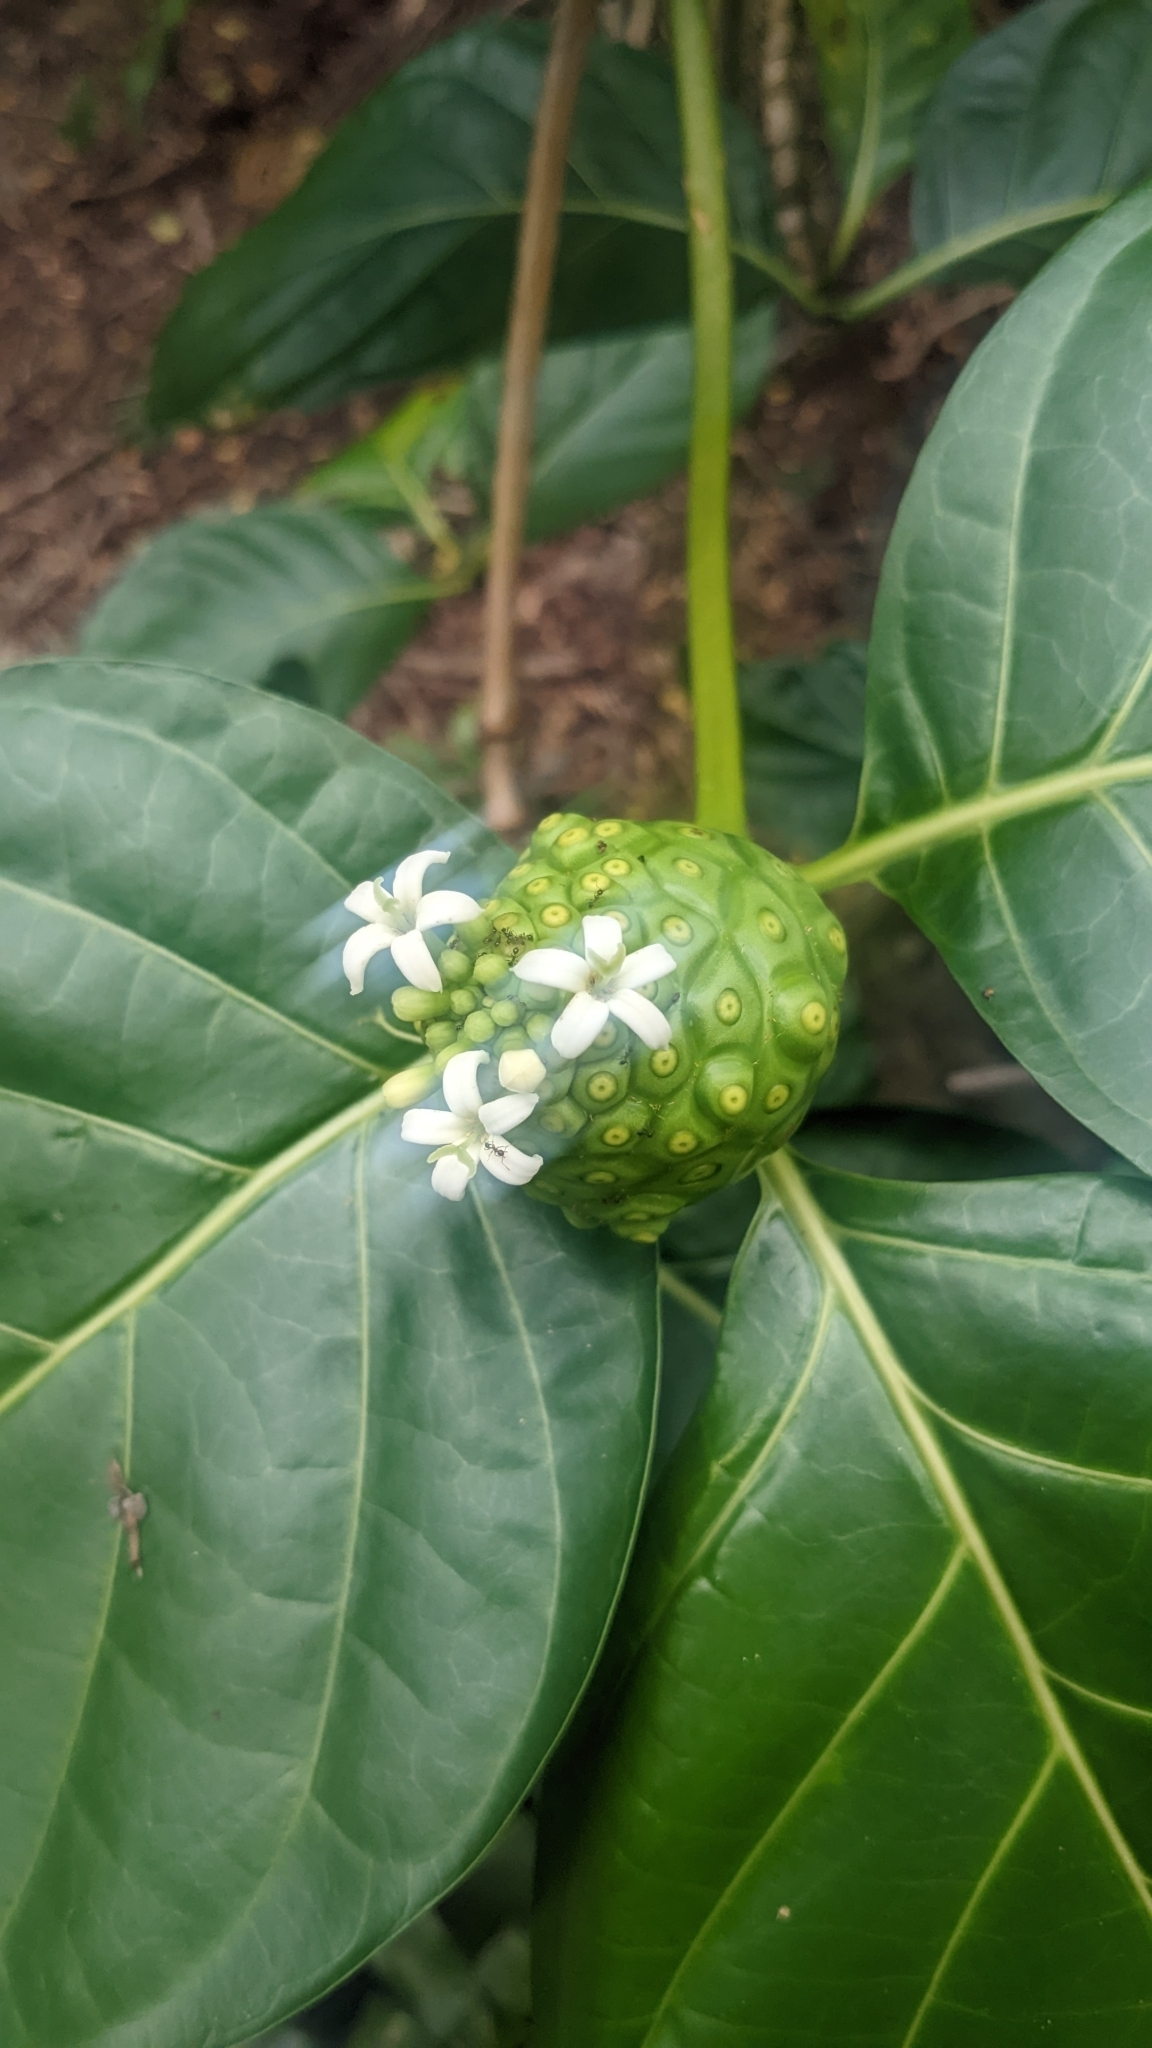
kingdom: Plantae
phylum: Tracheophyta
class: Magnoliopsida
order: Gentianales
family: Rubiaceae
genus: Morinda
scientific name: Morinda citrifolia
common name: Indian-mulberry
